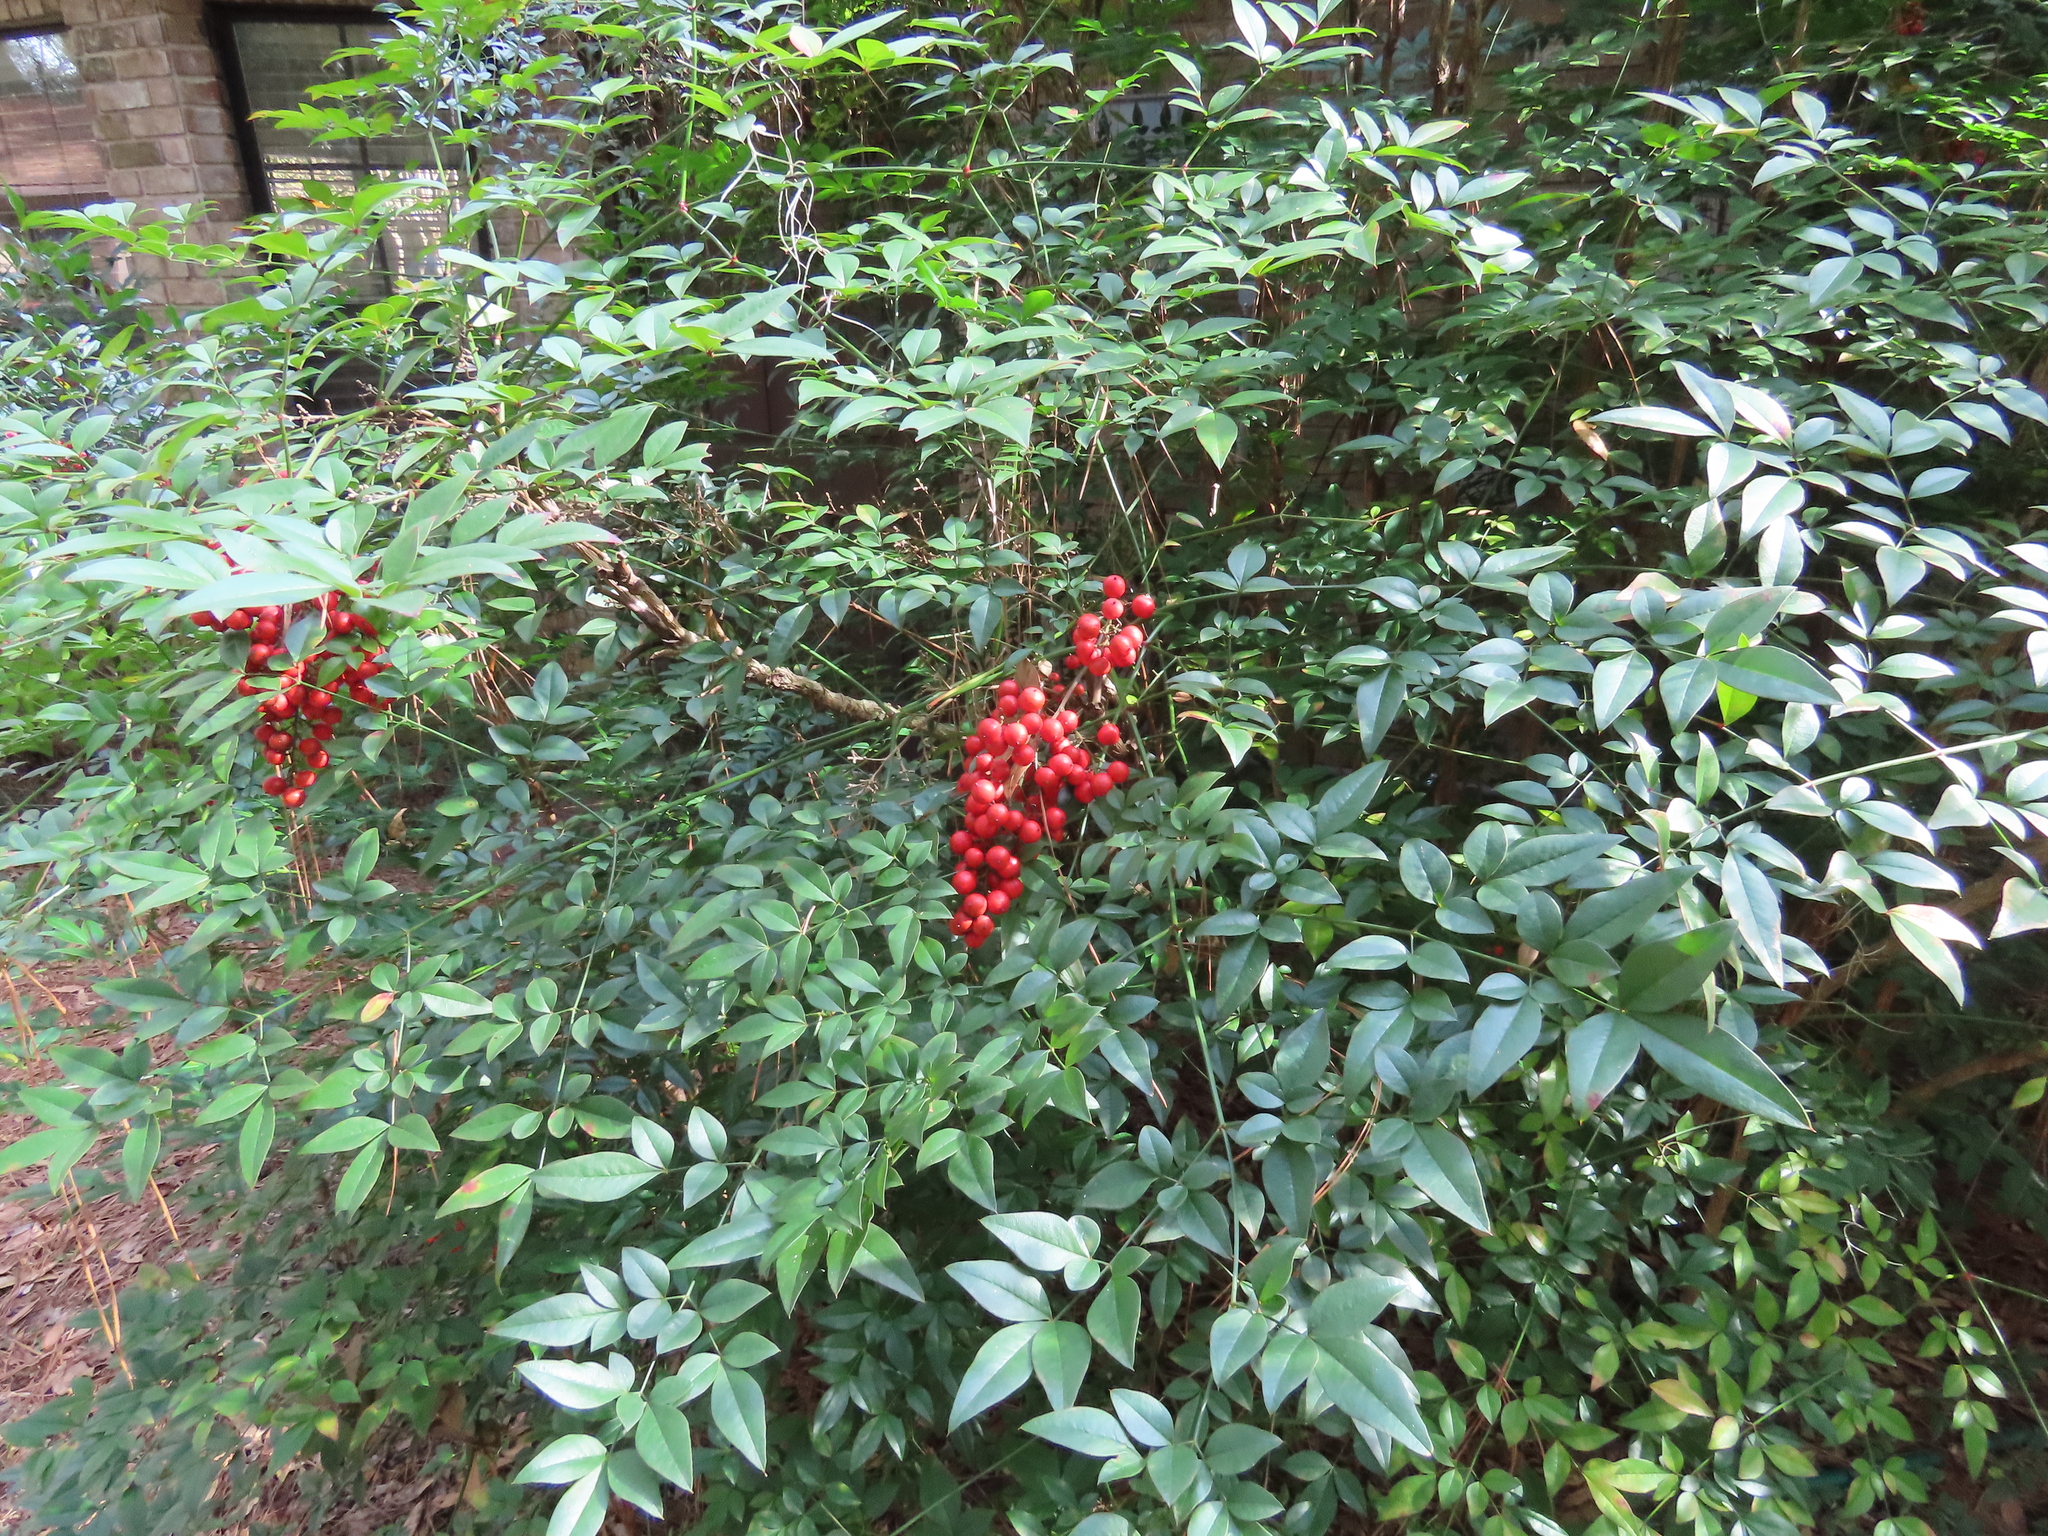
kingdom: Plantae
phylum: Tracheophyta
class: Magnoliopsida
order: Ranunculales
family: Berberidaceae
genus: Nandina
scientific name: Nandina domestica
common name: Sacred bamboo
